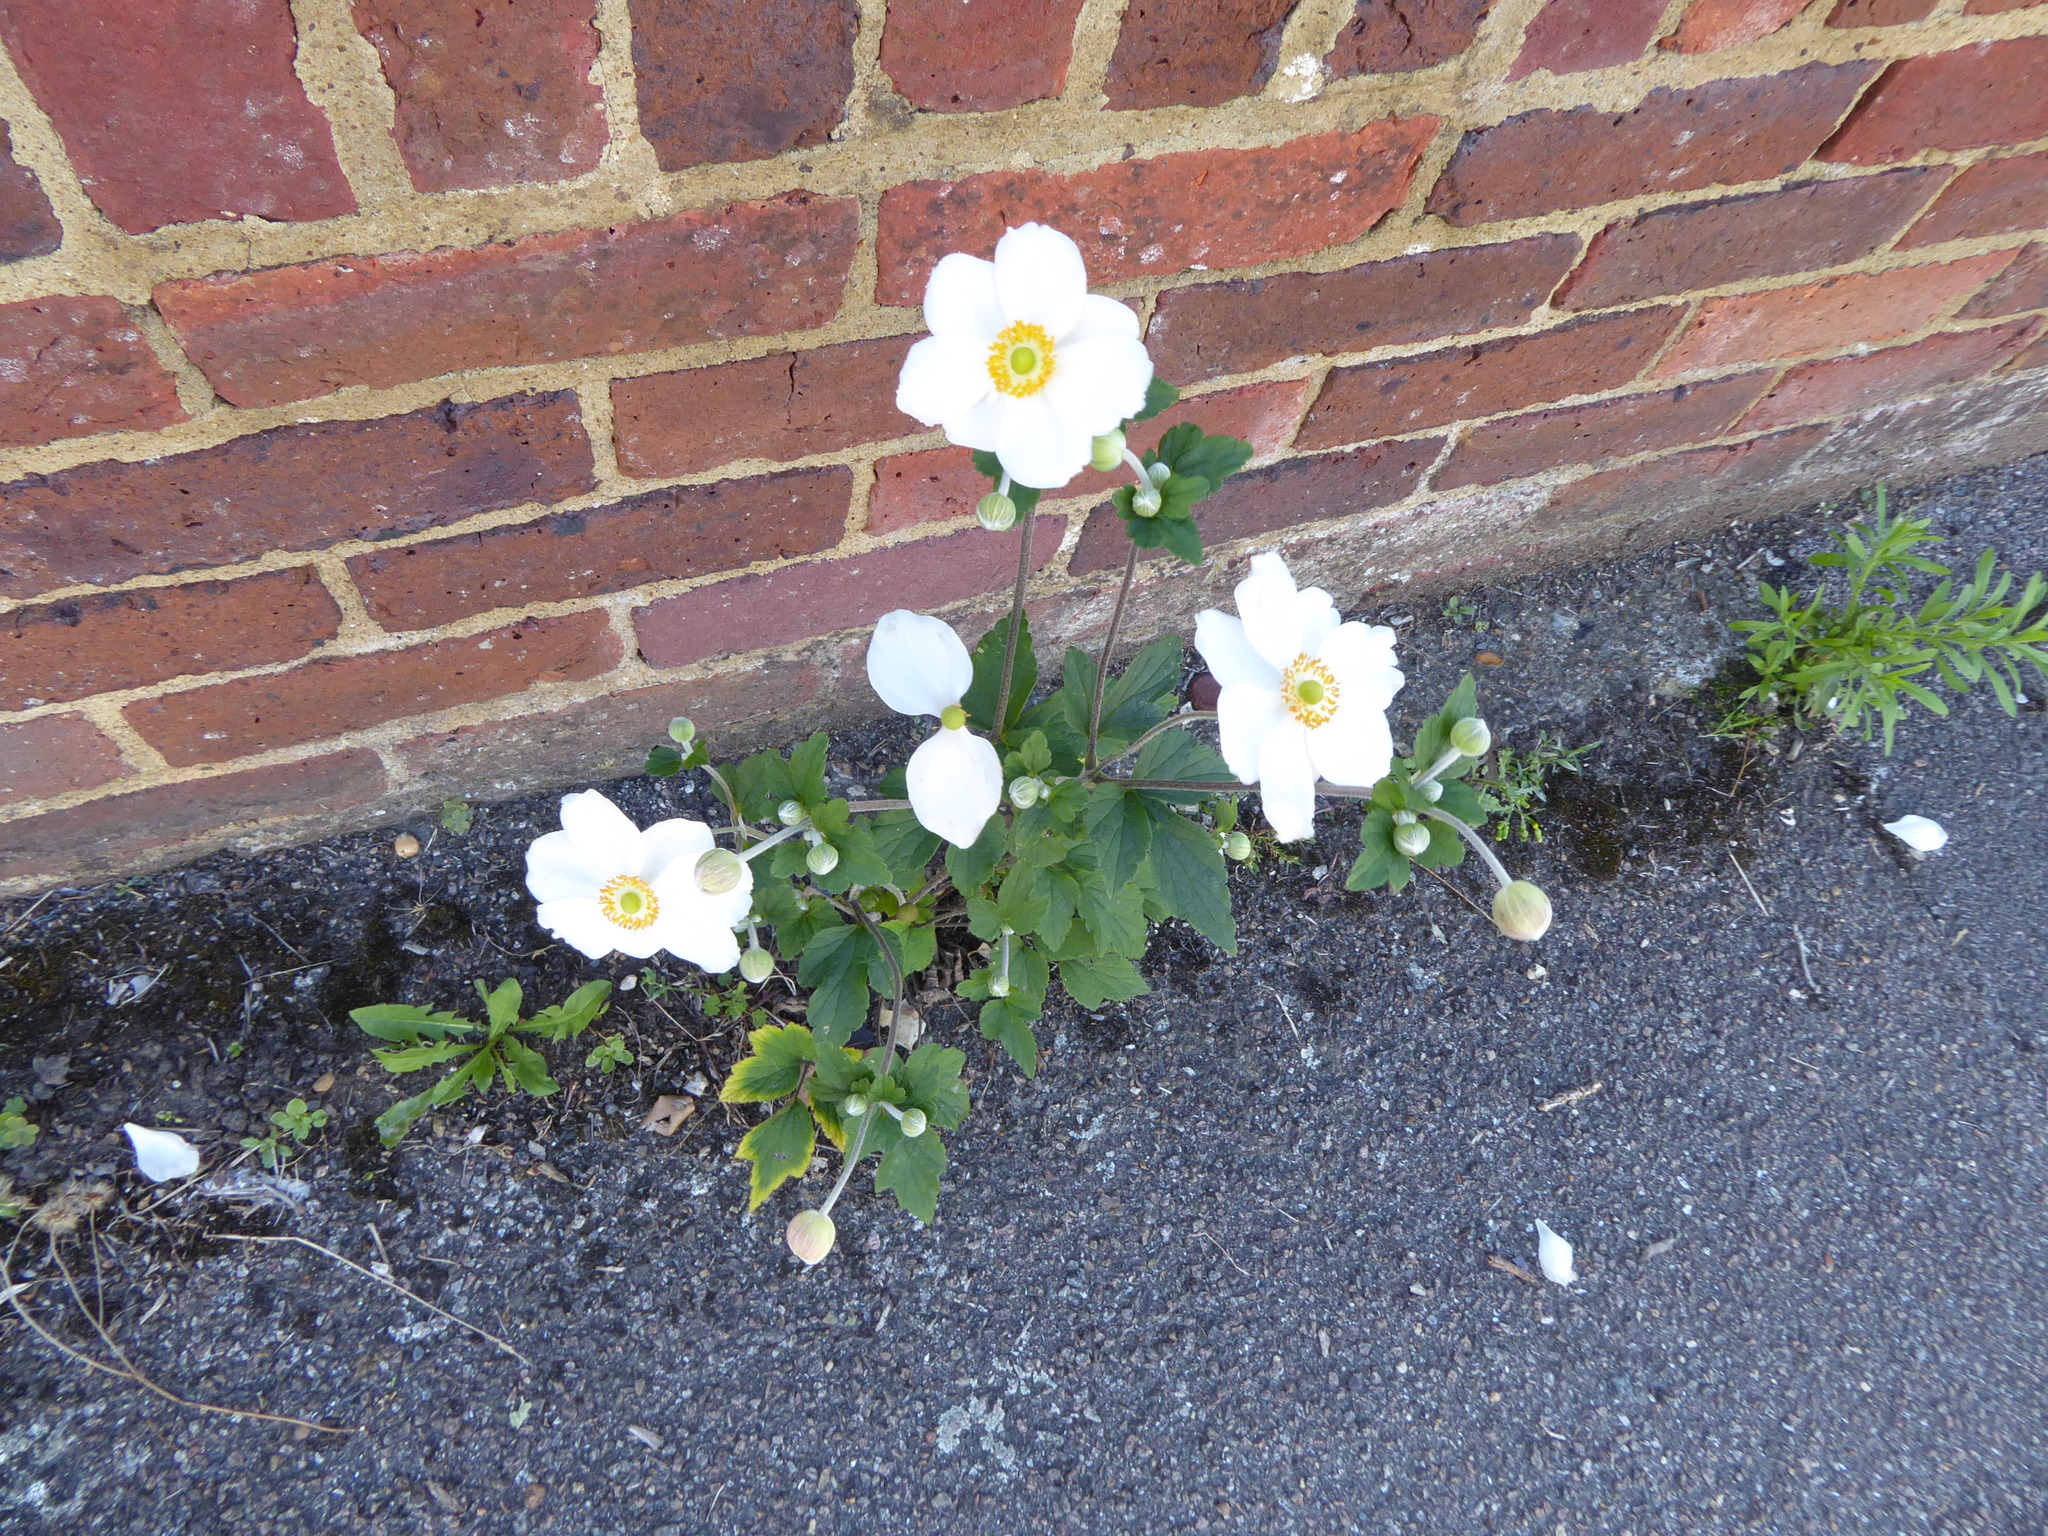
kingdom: Plantae
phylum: Tracheophyta
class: Magnoliopsida
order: Ranunculales
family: Ranunculaceae
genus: Eriocapitella
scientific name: Eriocapitella hupehensis
